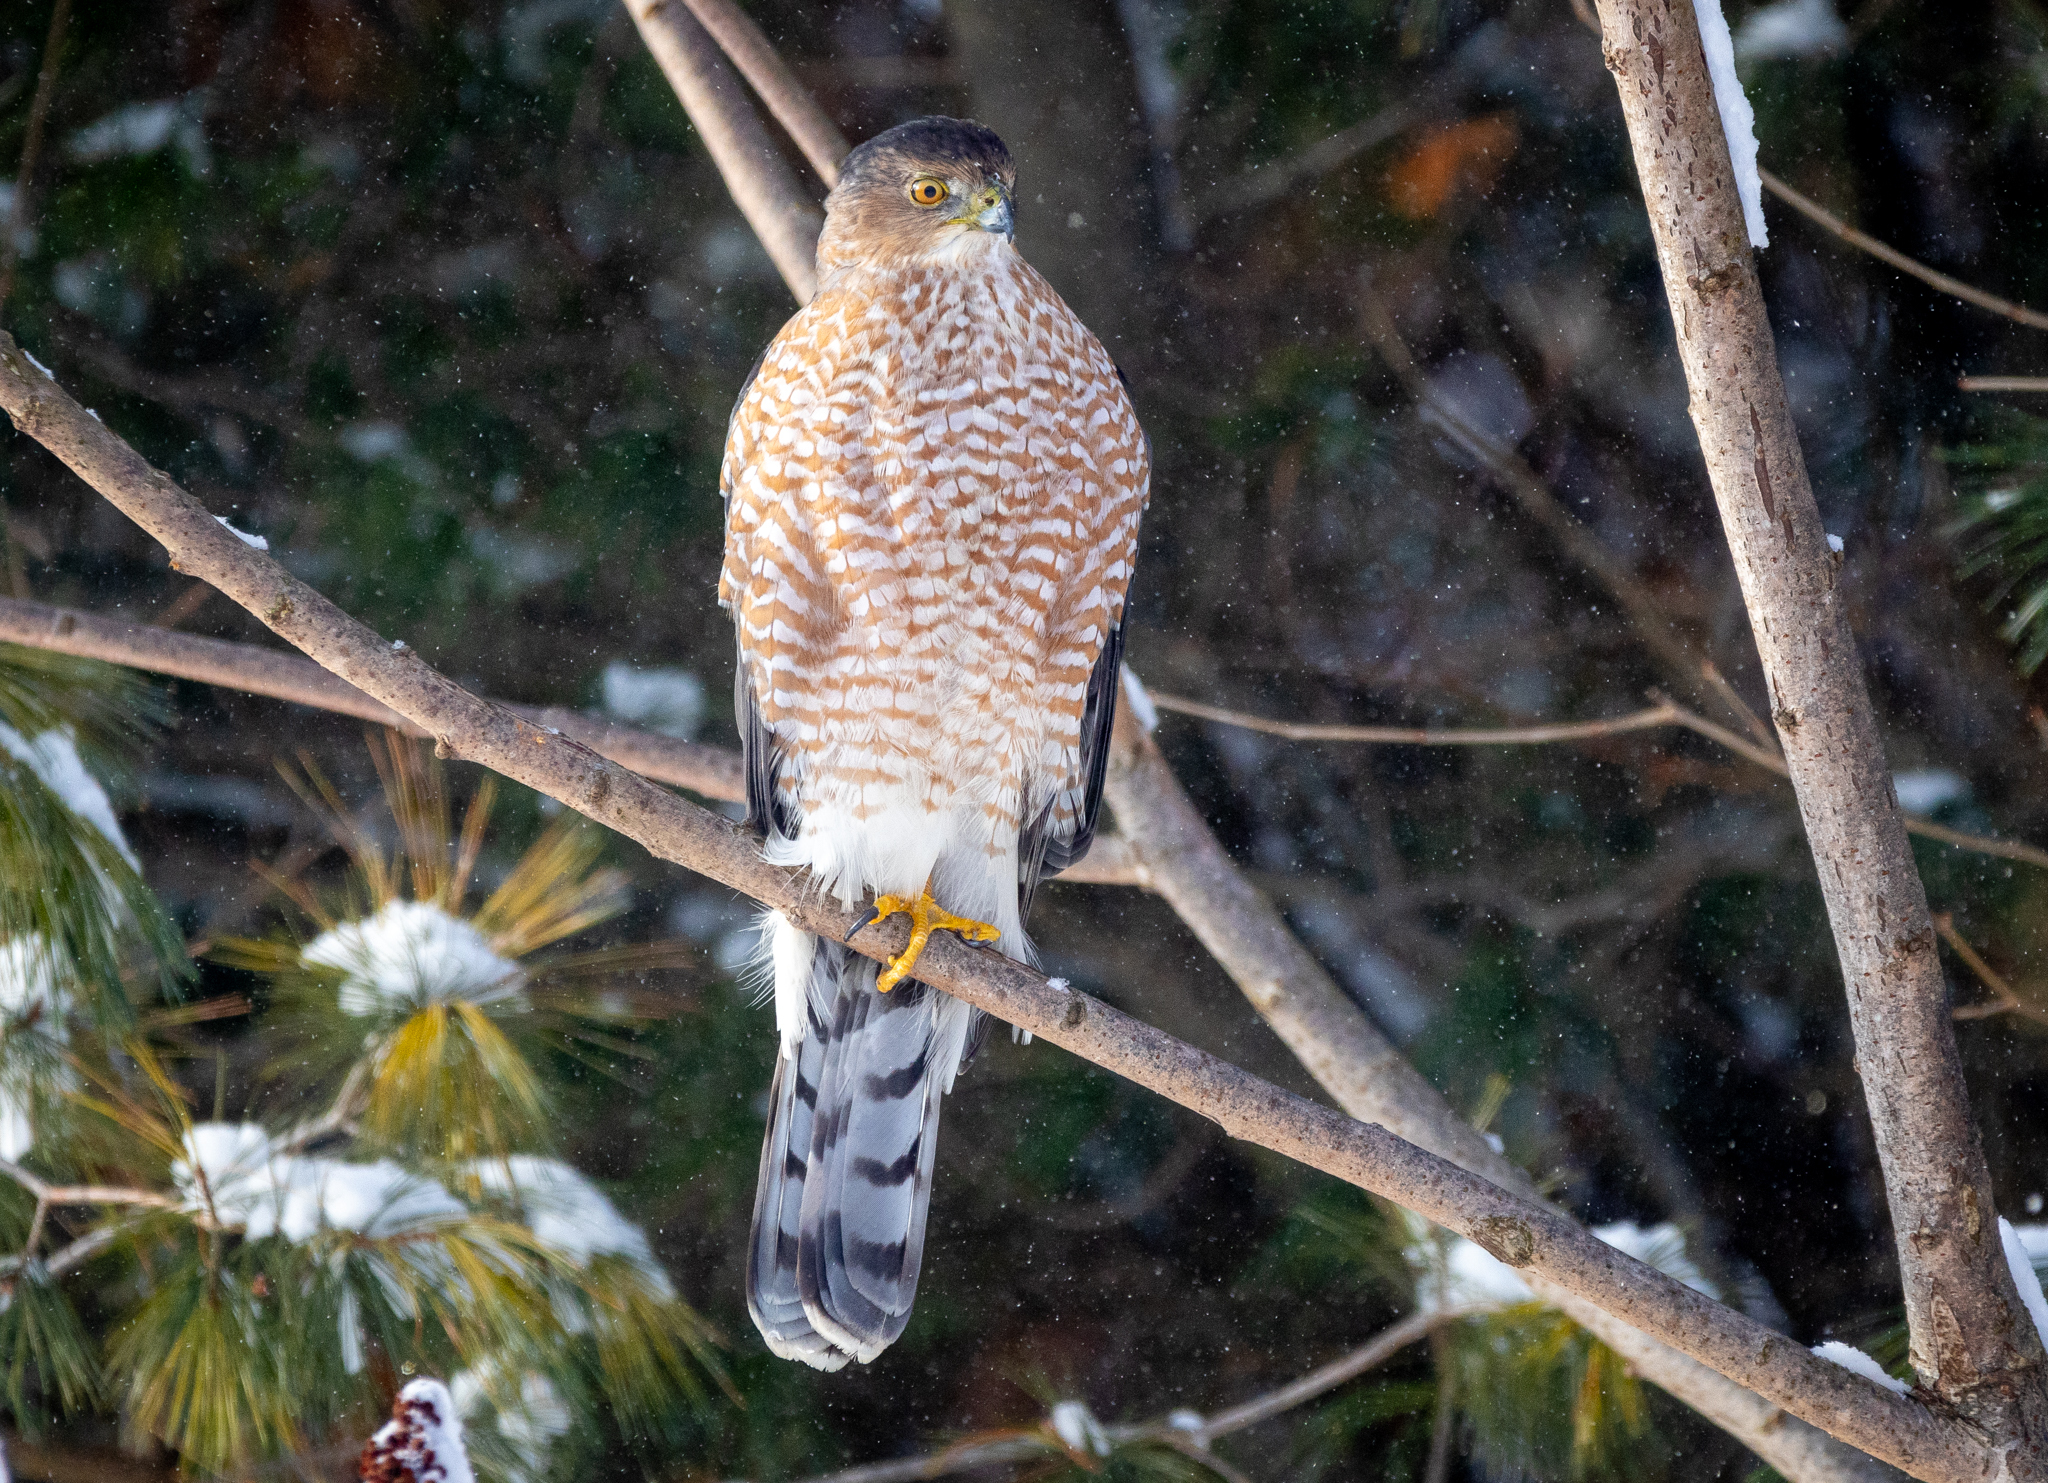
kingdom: Animalia
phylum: Chordata
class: Aves
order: Accipitriformes
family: Accipitridae
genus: Accipiter
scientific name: Accipiter cooperii
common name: Cooper's hawk
